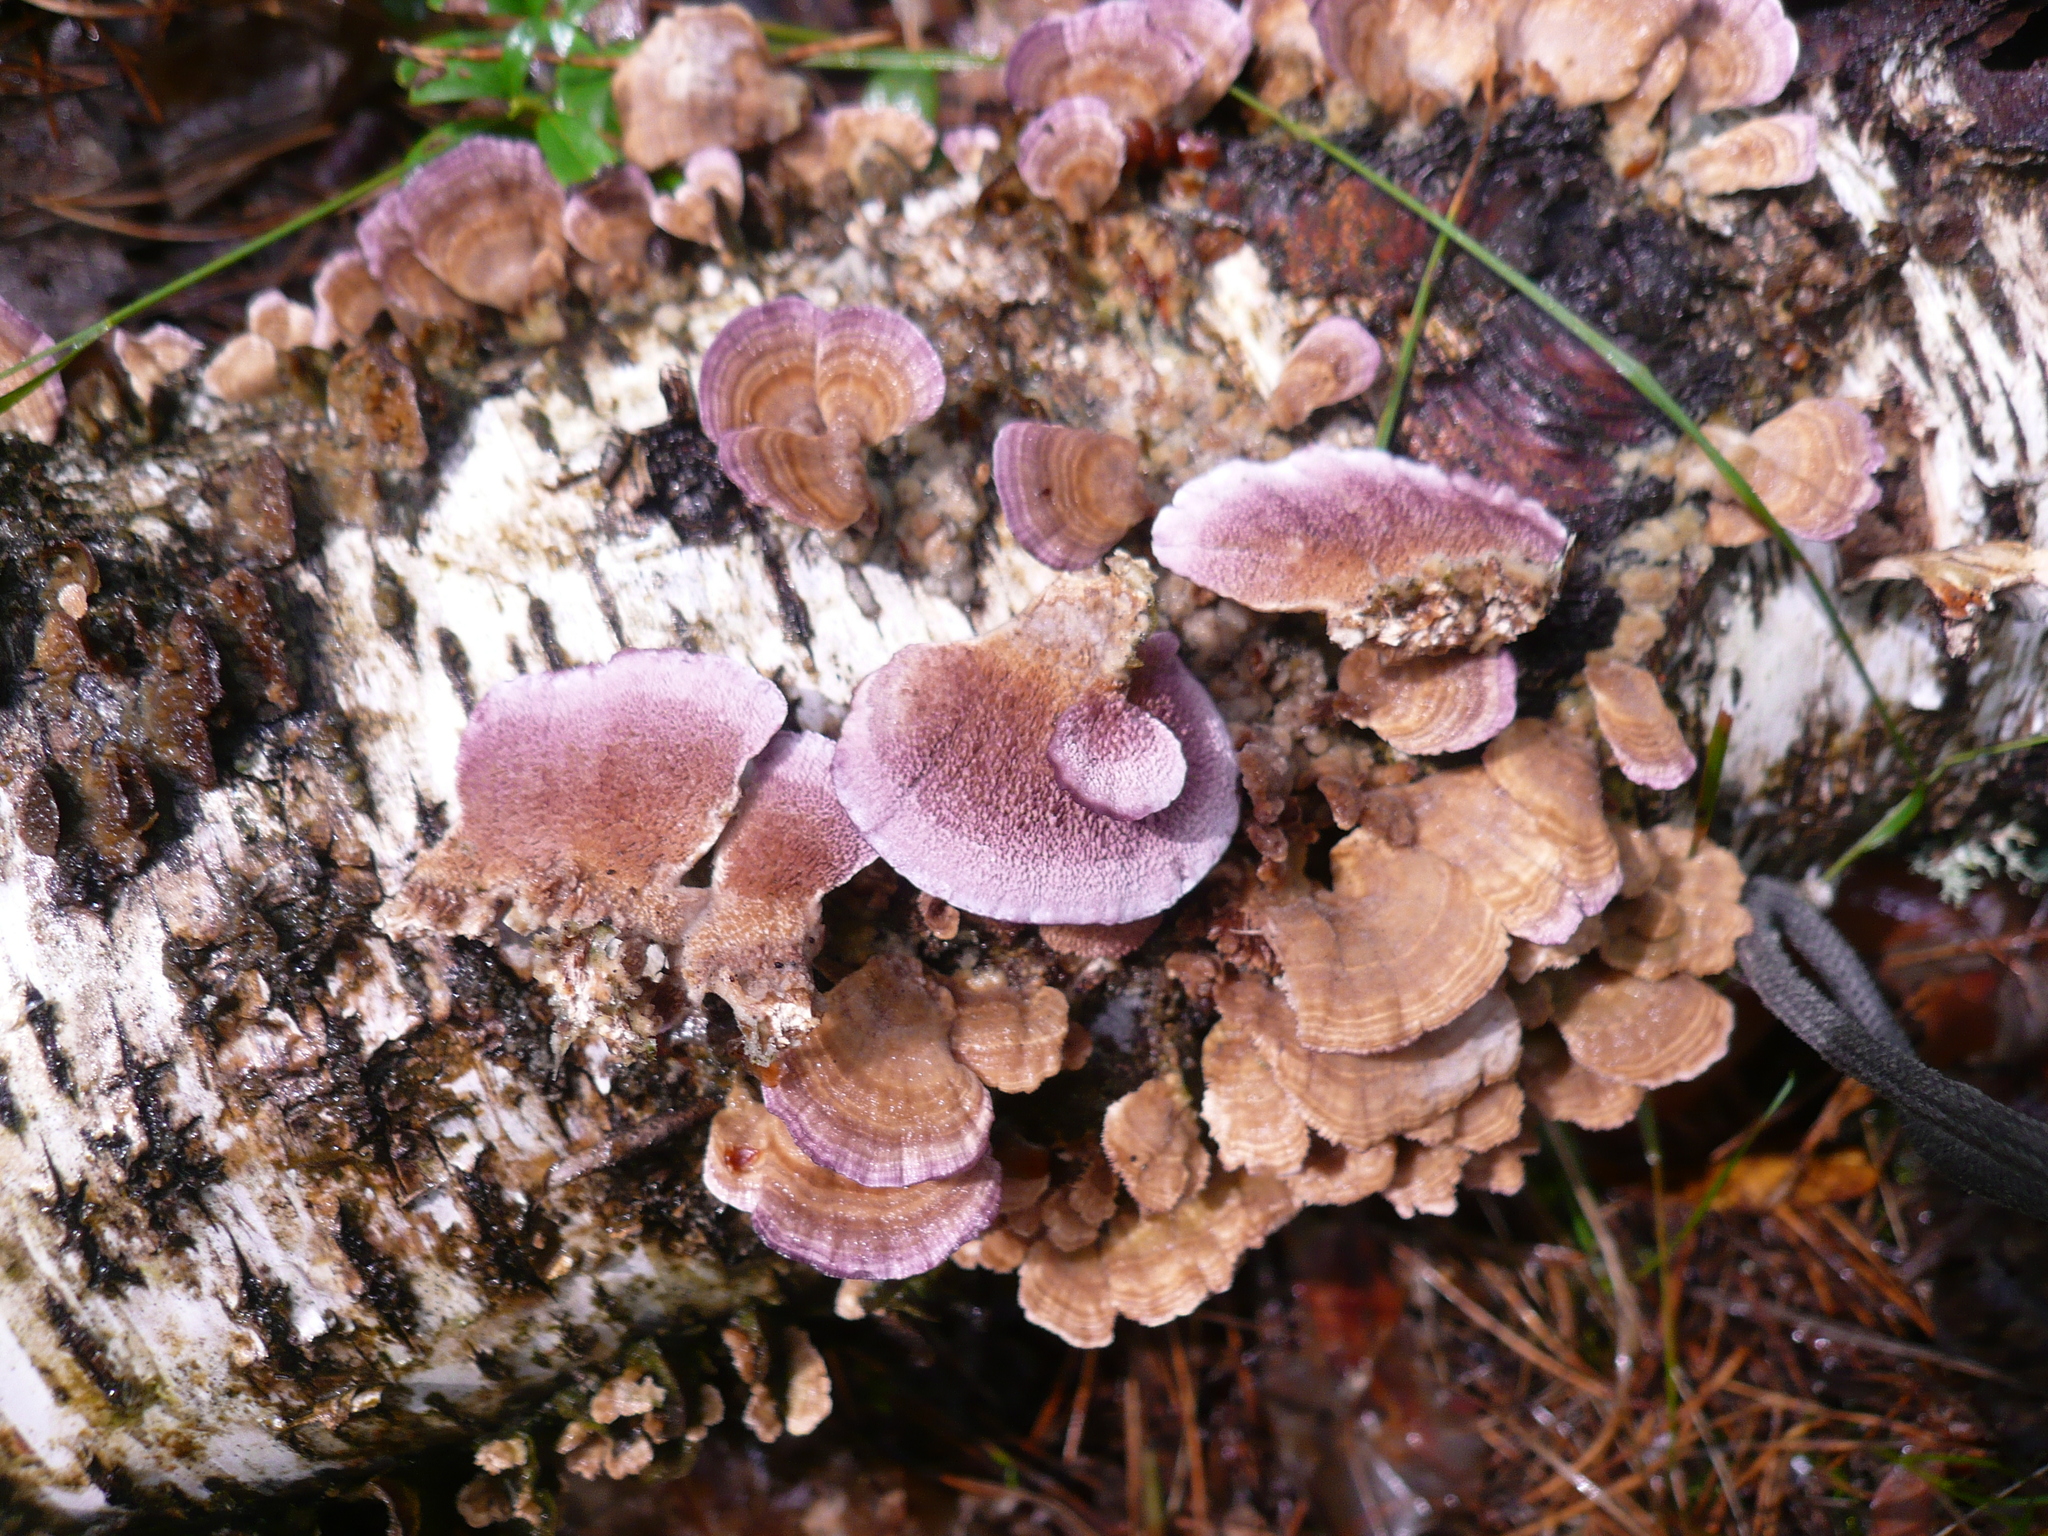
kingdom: Fungi
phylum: Basidiomycota
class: Agaricomycetes
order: Hymenochaetales
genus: Trichaptum
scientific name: Trichaptum biforme
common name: Violet-toothed polypore
